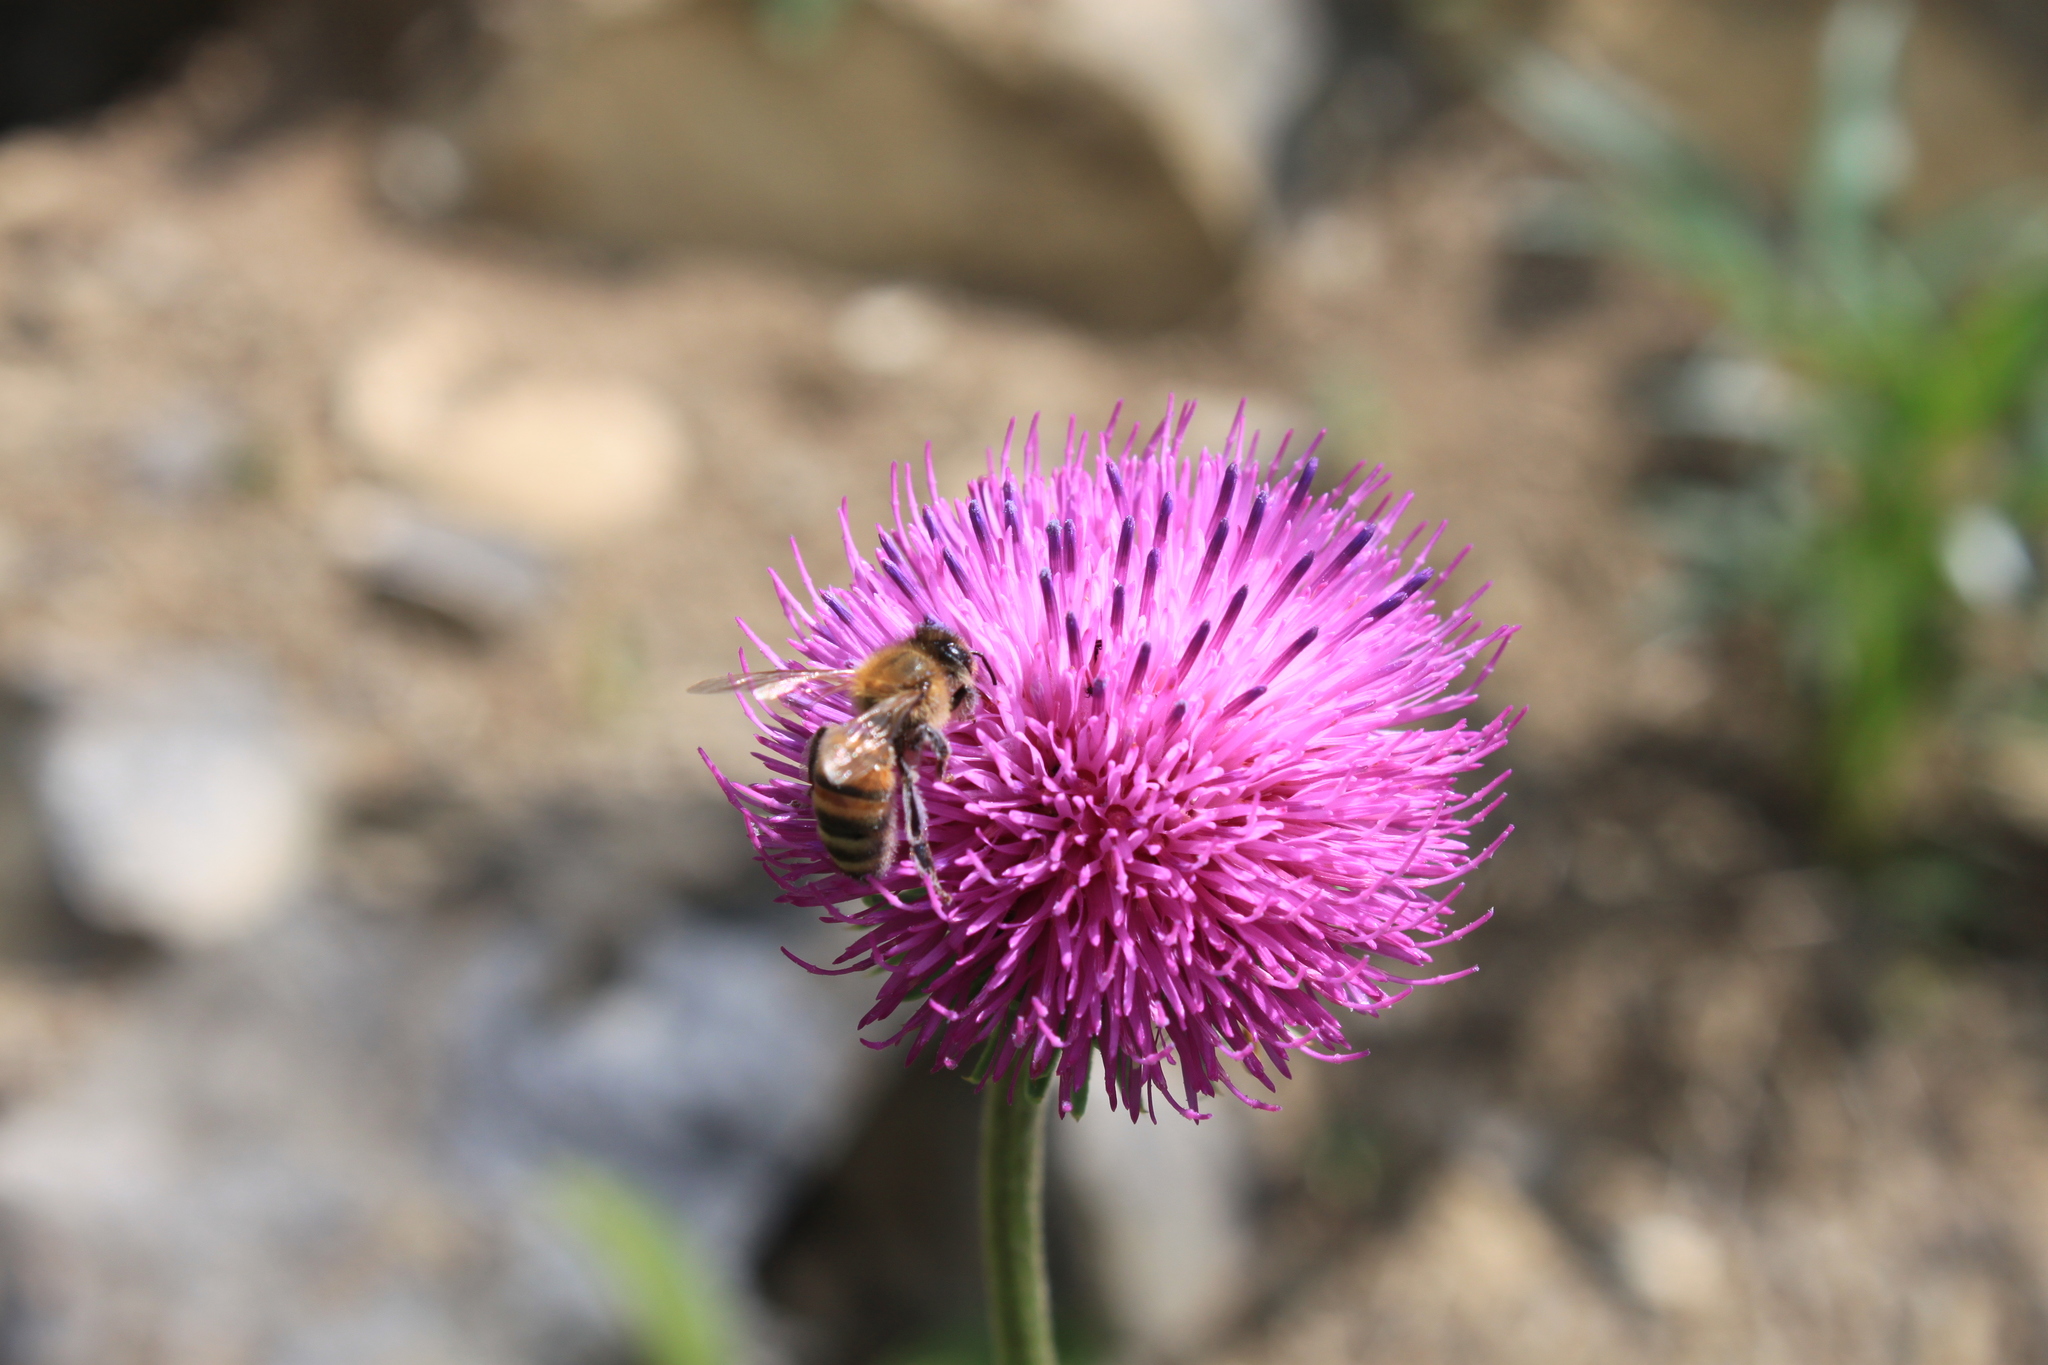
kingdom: Animalia
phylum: Arthropoda
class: Insecta
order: Hymenoptera
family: Apidae
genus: Apis
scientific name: Apis mellifera
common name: Honey bee
